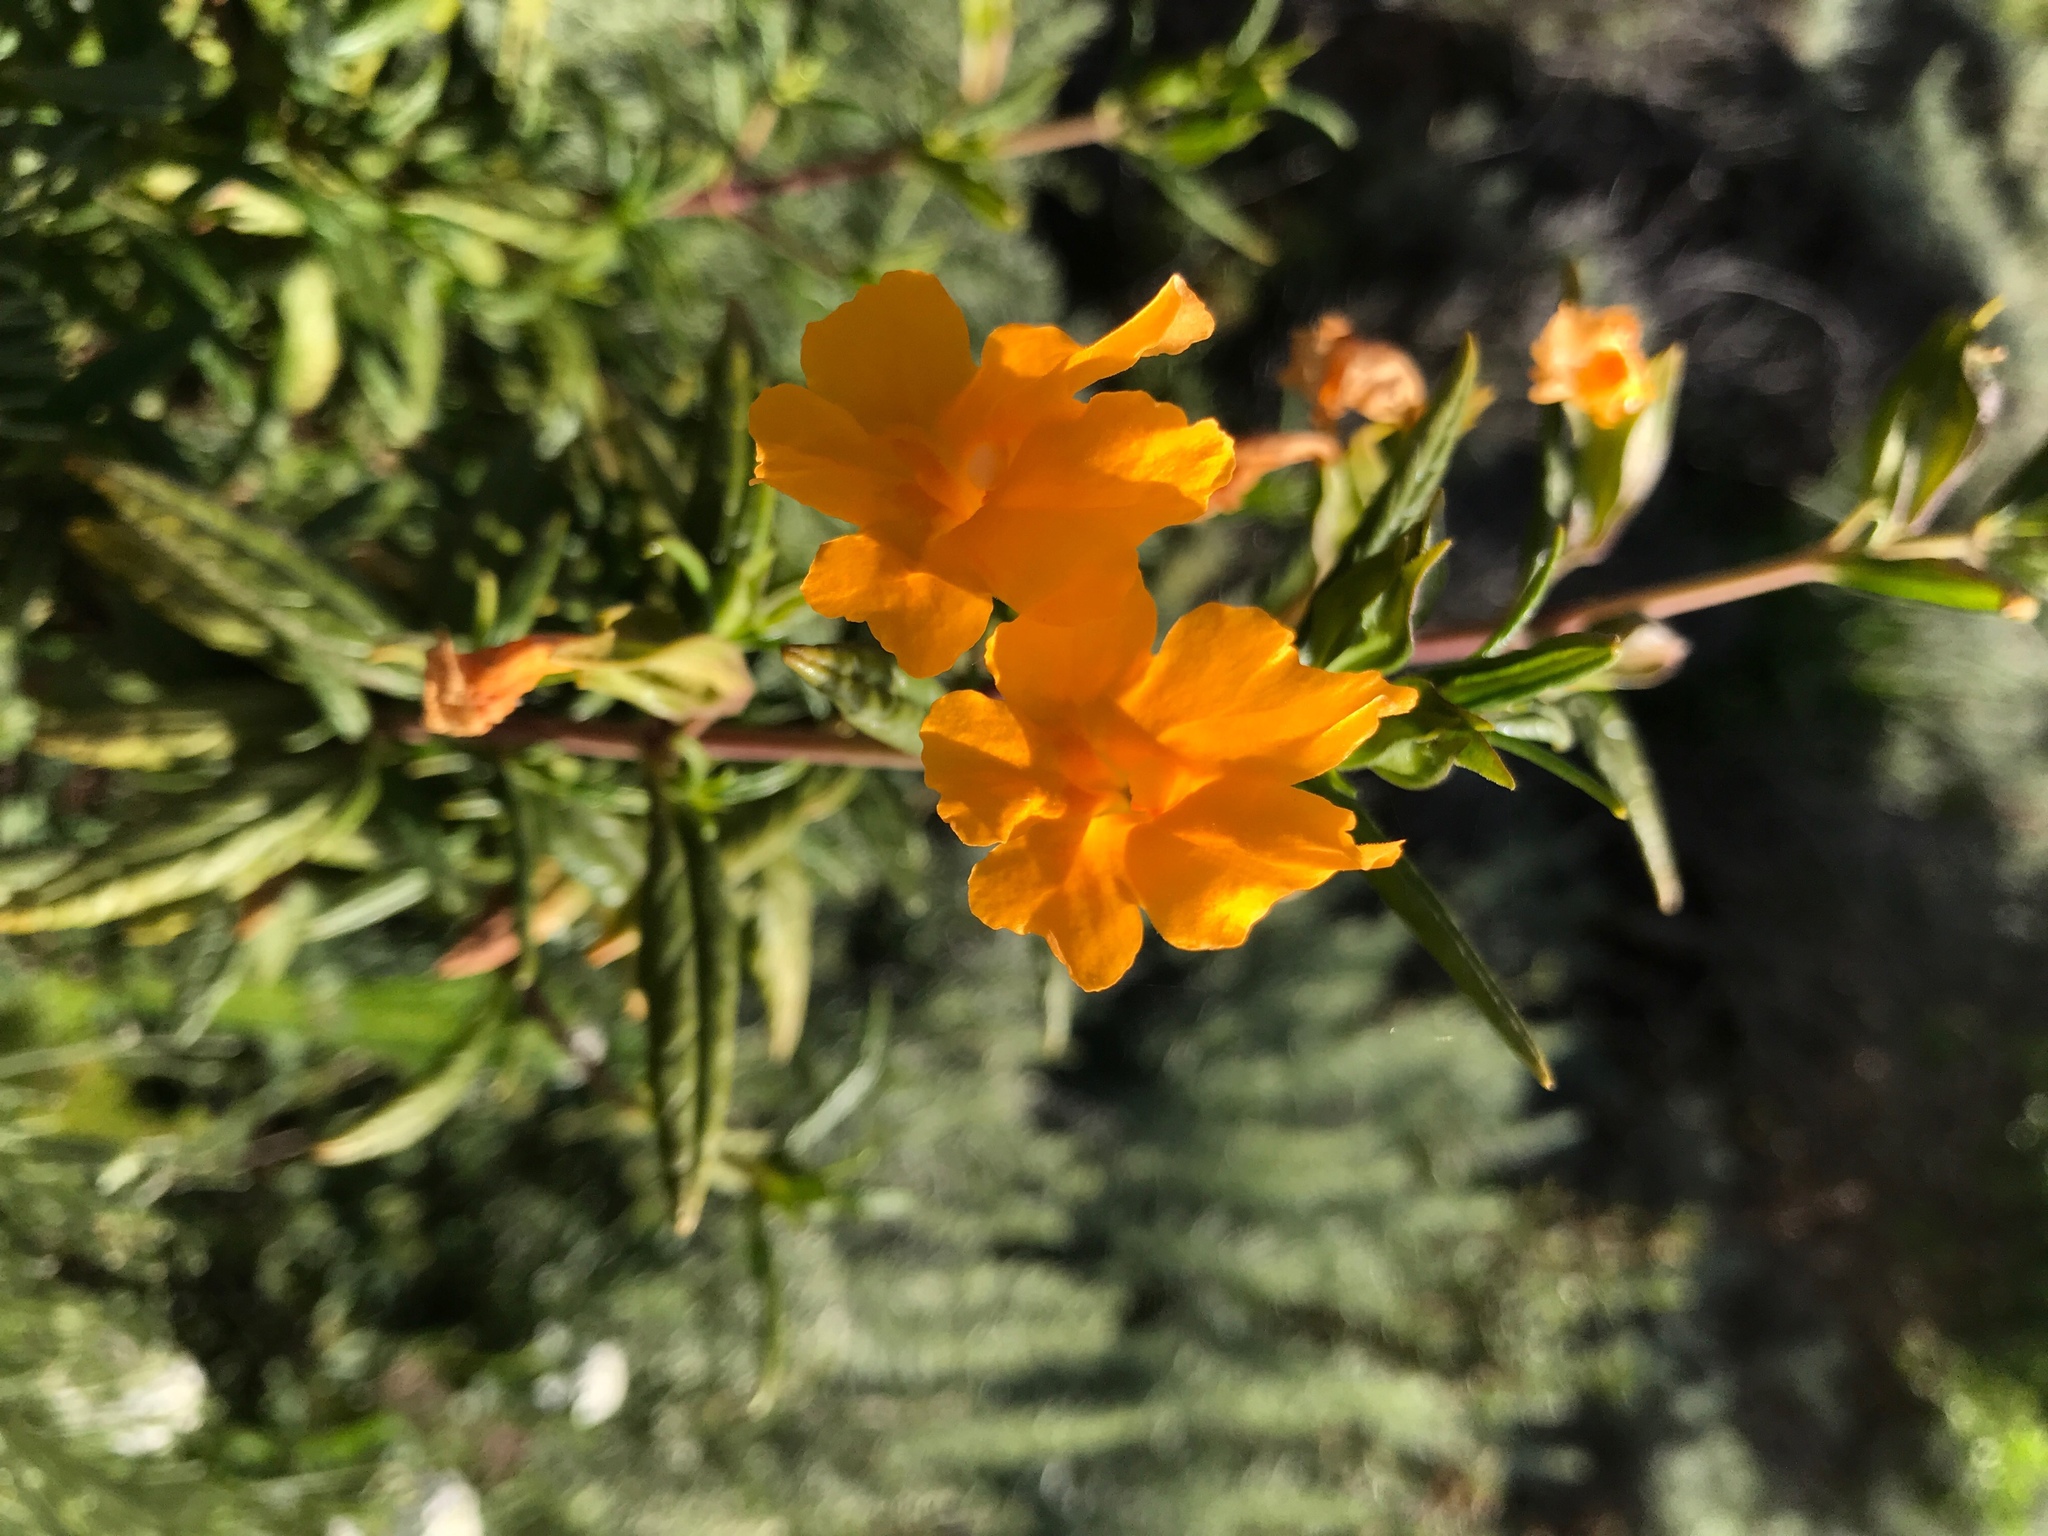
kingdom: Plantae
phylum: Tracheophyta
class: Magnoliopsida
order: Lamiales
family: Phrymaceae
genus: Diplacus
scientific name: Diplacus aurantiacus
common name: Bush monkey-flower
